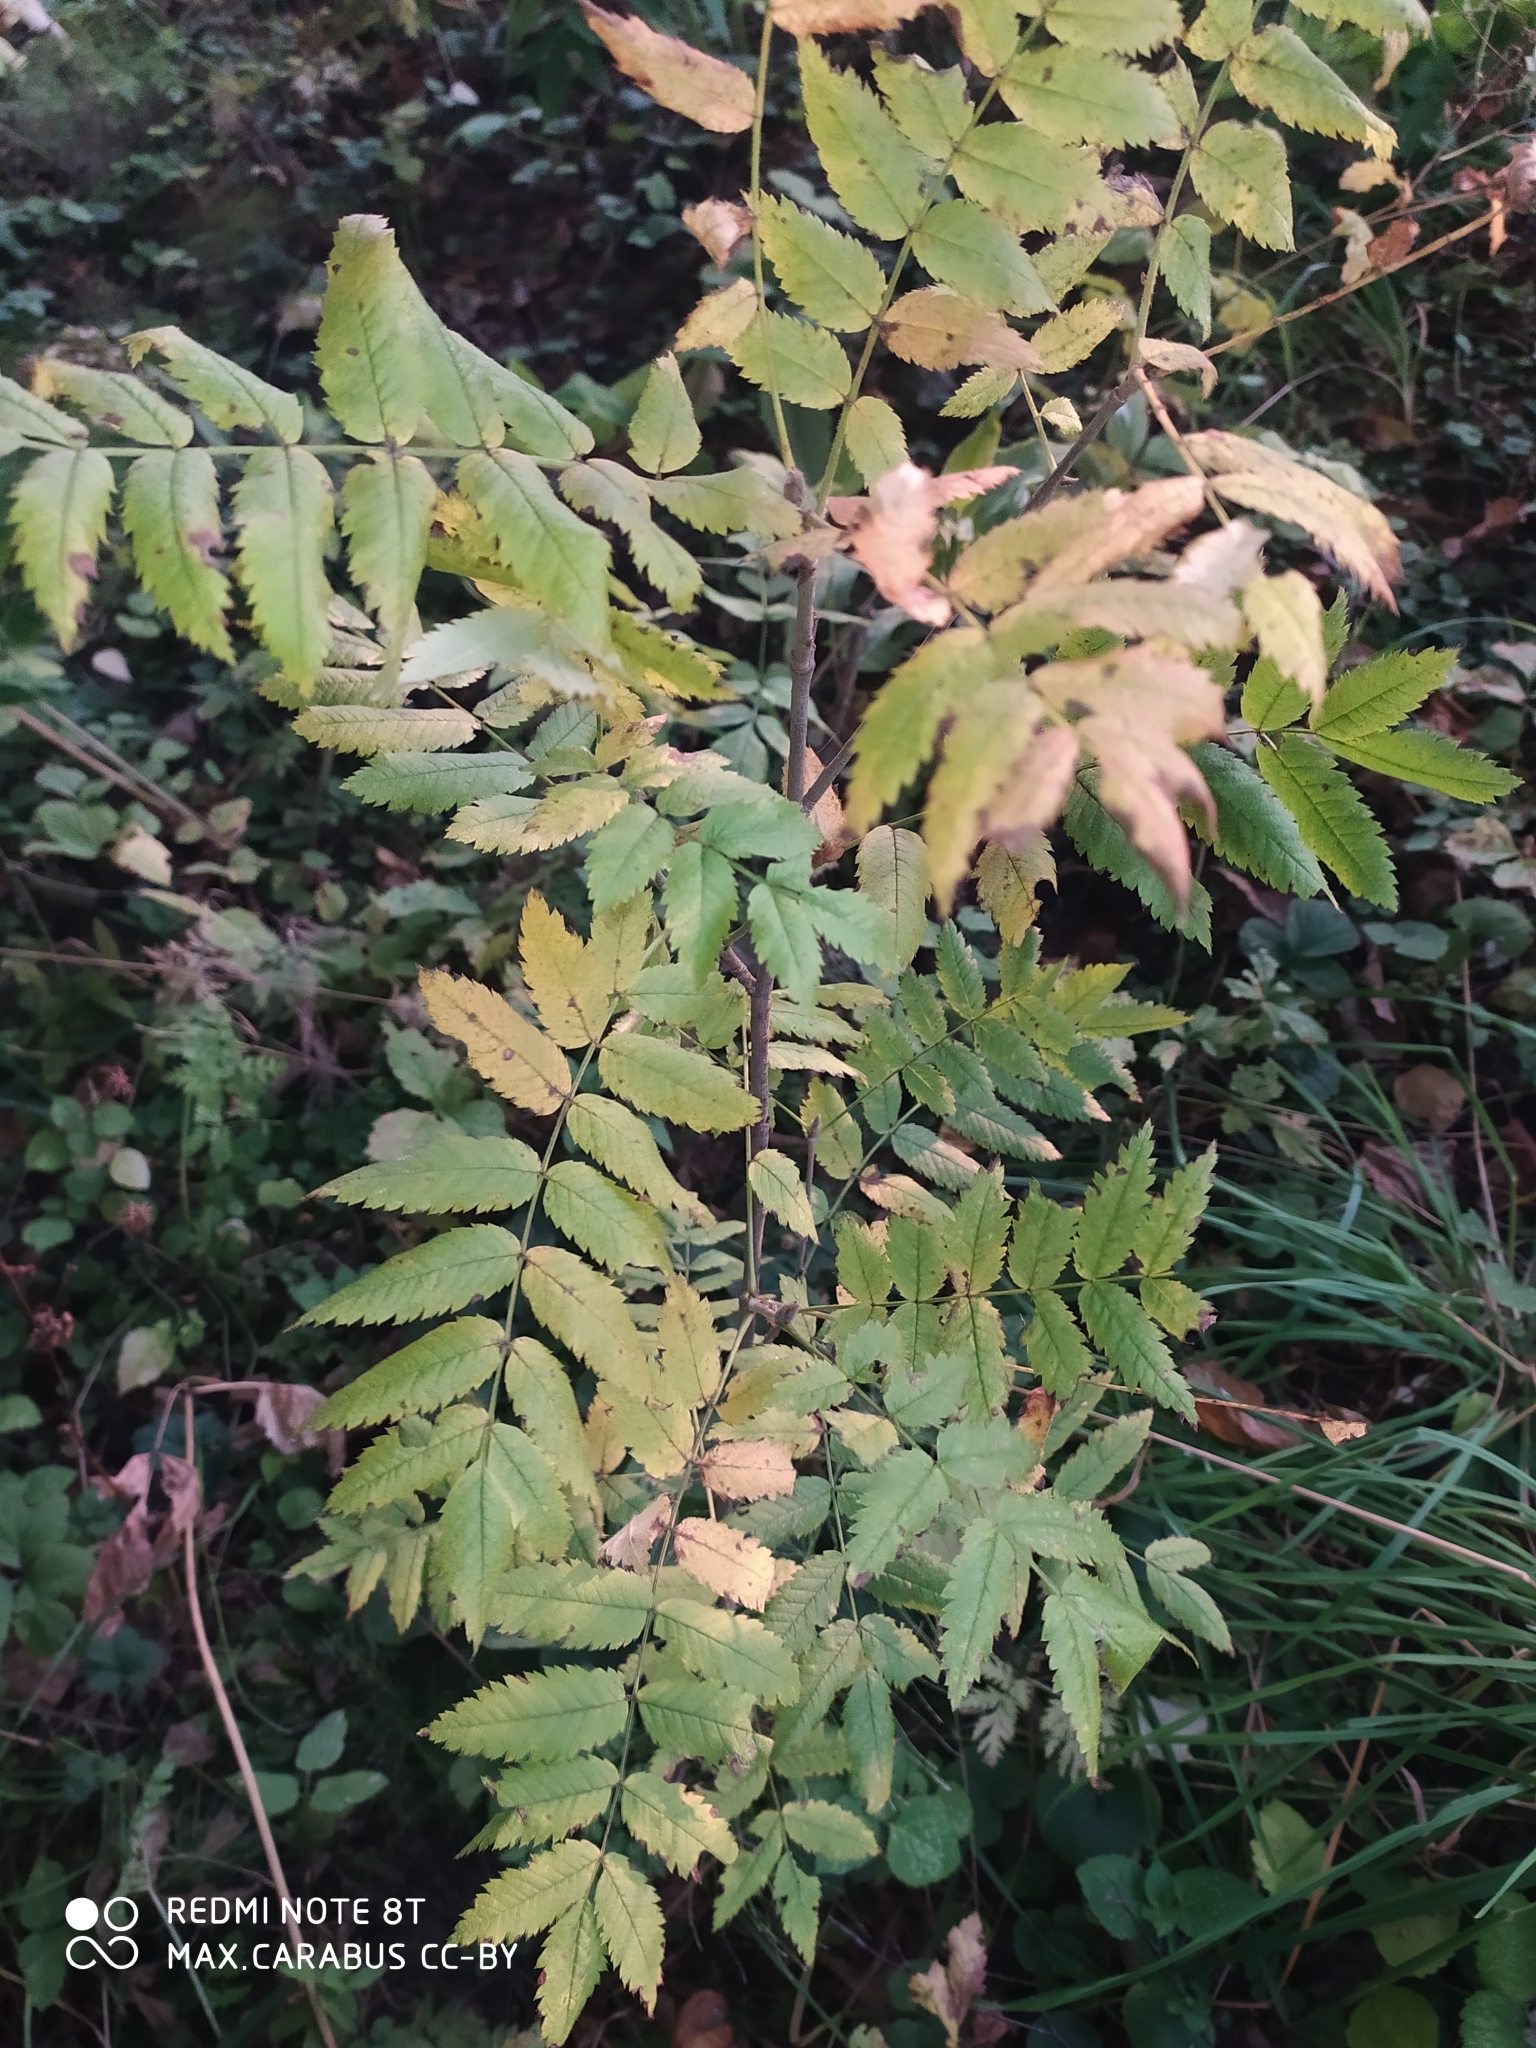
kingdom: Plantae
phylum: Tracheophyta
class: Magnoliopsida
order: Rosales
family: Rosaceae
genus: Sorbus
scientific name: Sorbus aucuparia
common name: Rowan
